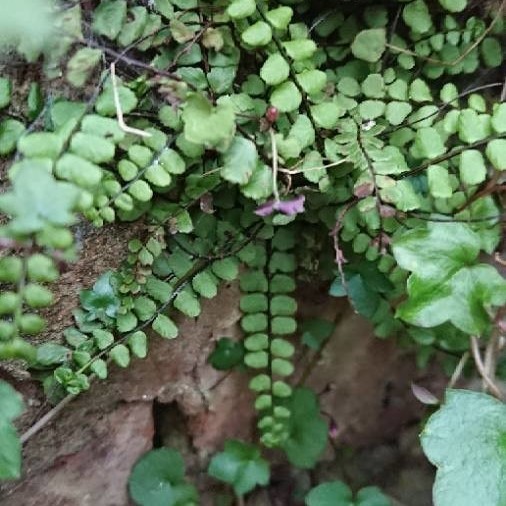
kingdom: Plantae
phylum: Tracheophyta
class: Polypodiopsida
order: Polypodiales
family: Aspleniaceae
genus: Asplenium
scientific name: Asplenium trichomanes
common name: Maidenhair spleenwort
